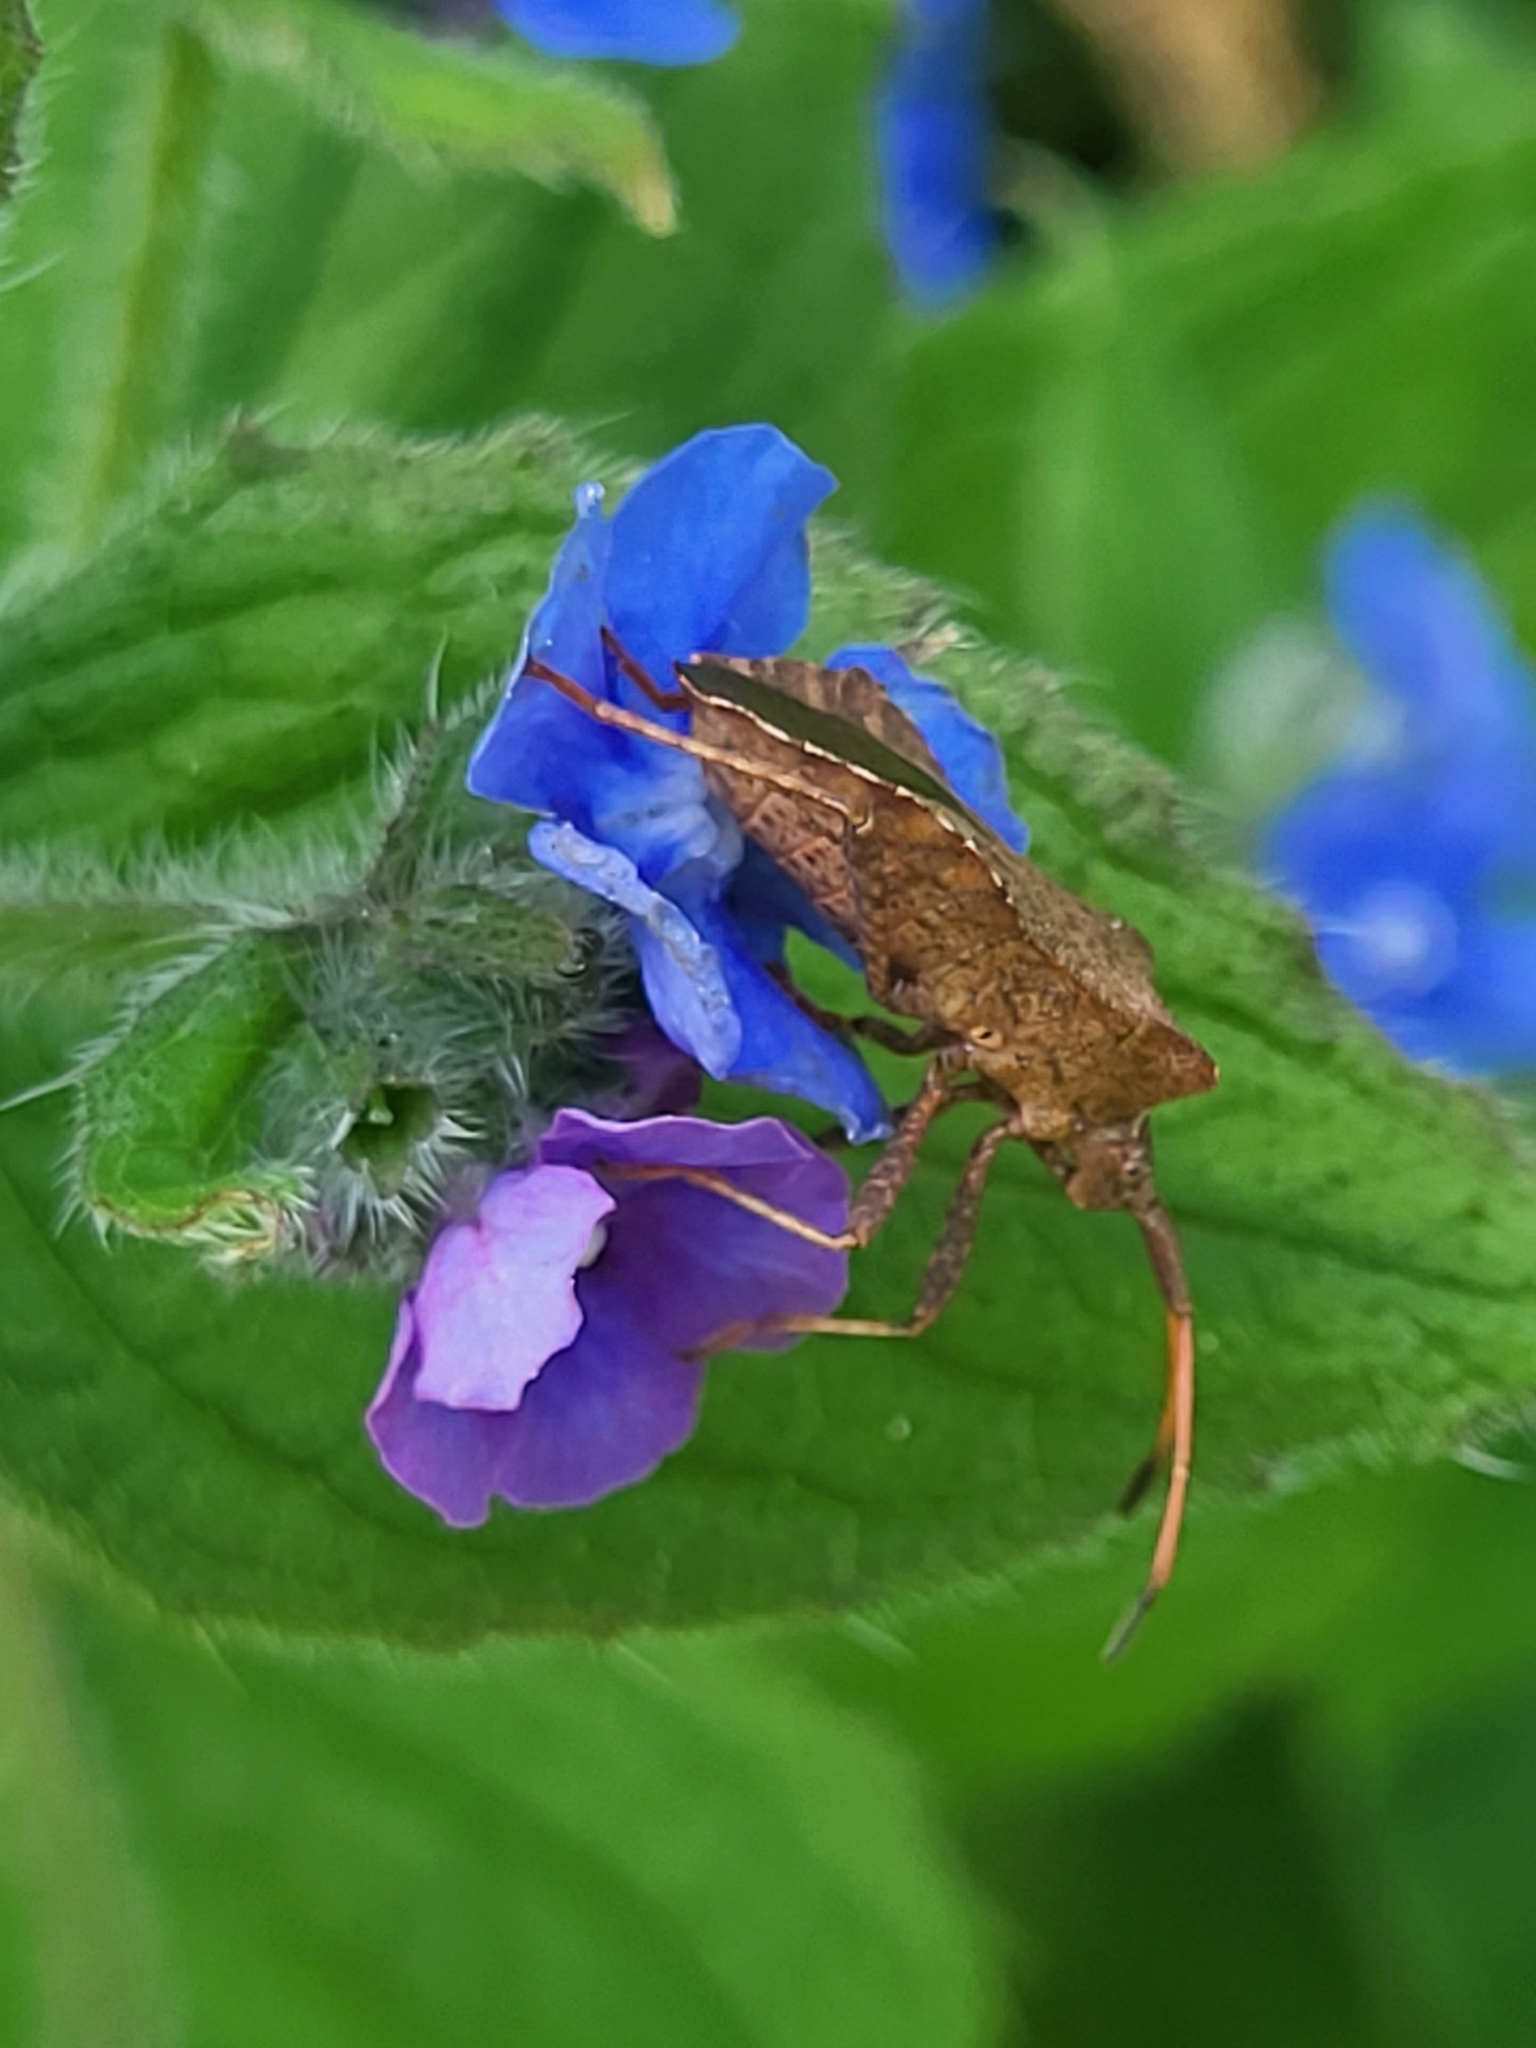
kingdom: Animalia
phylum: Arthropoda
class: Insecta
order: Hemiptera
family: Coreidae
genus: Coreus
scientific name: Coreus marginatus
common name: Dock bug
